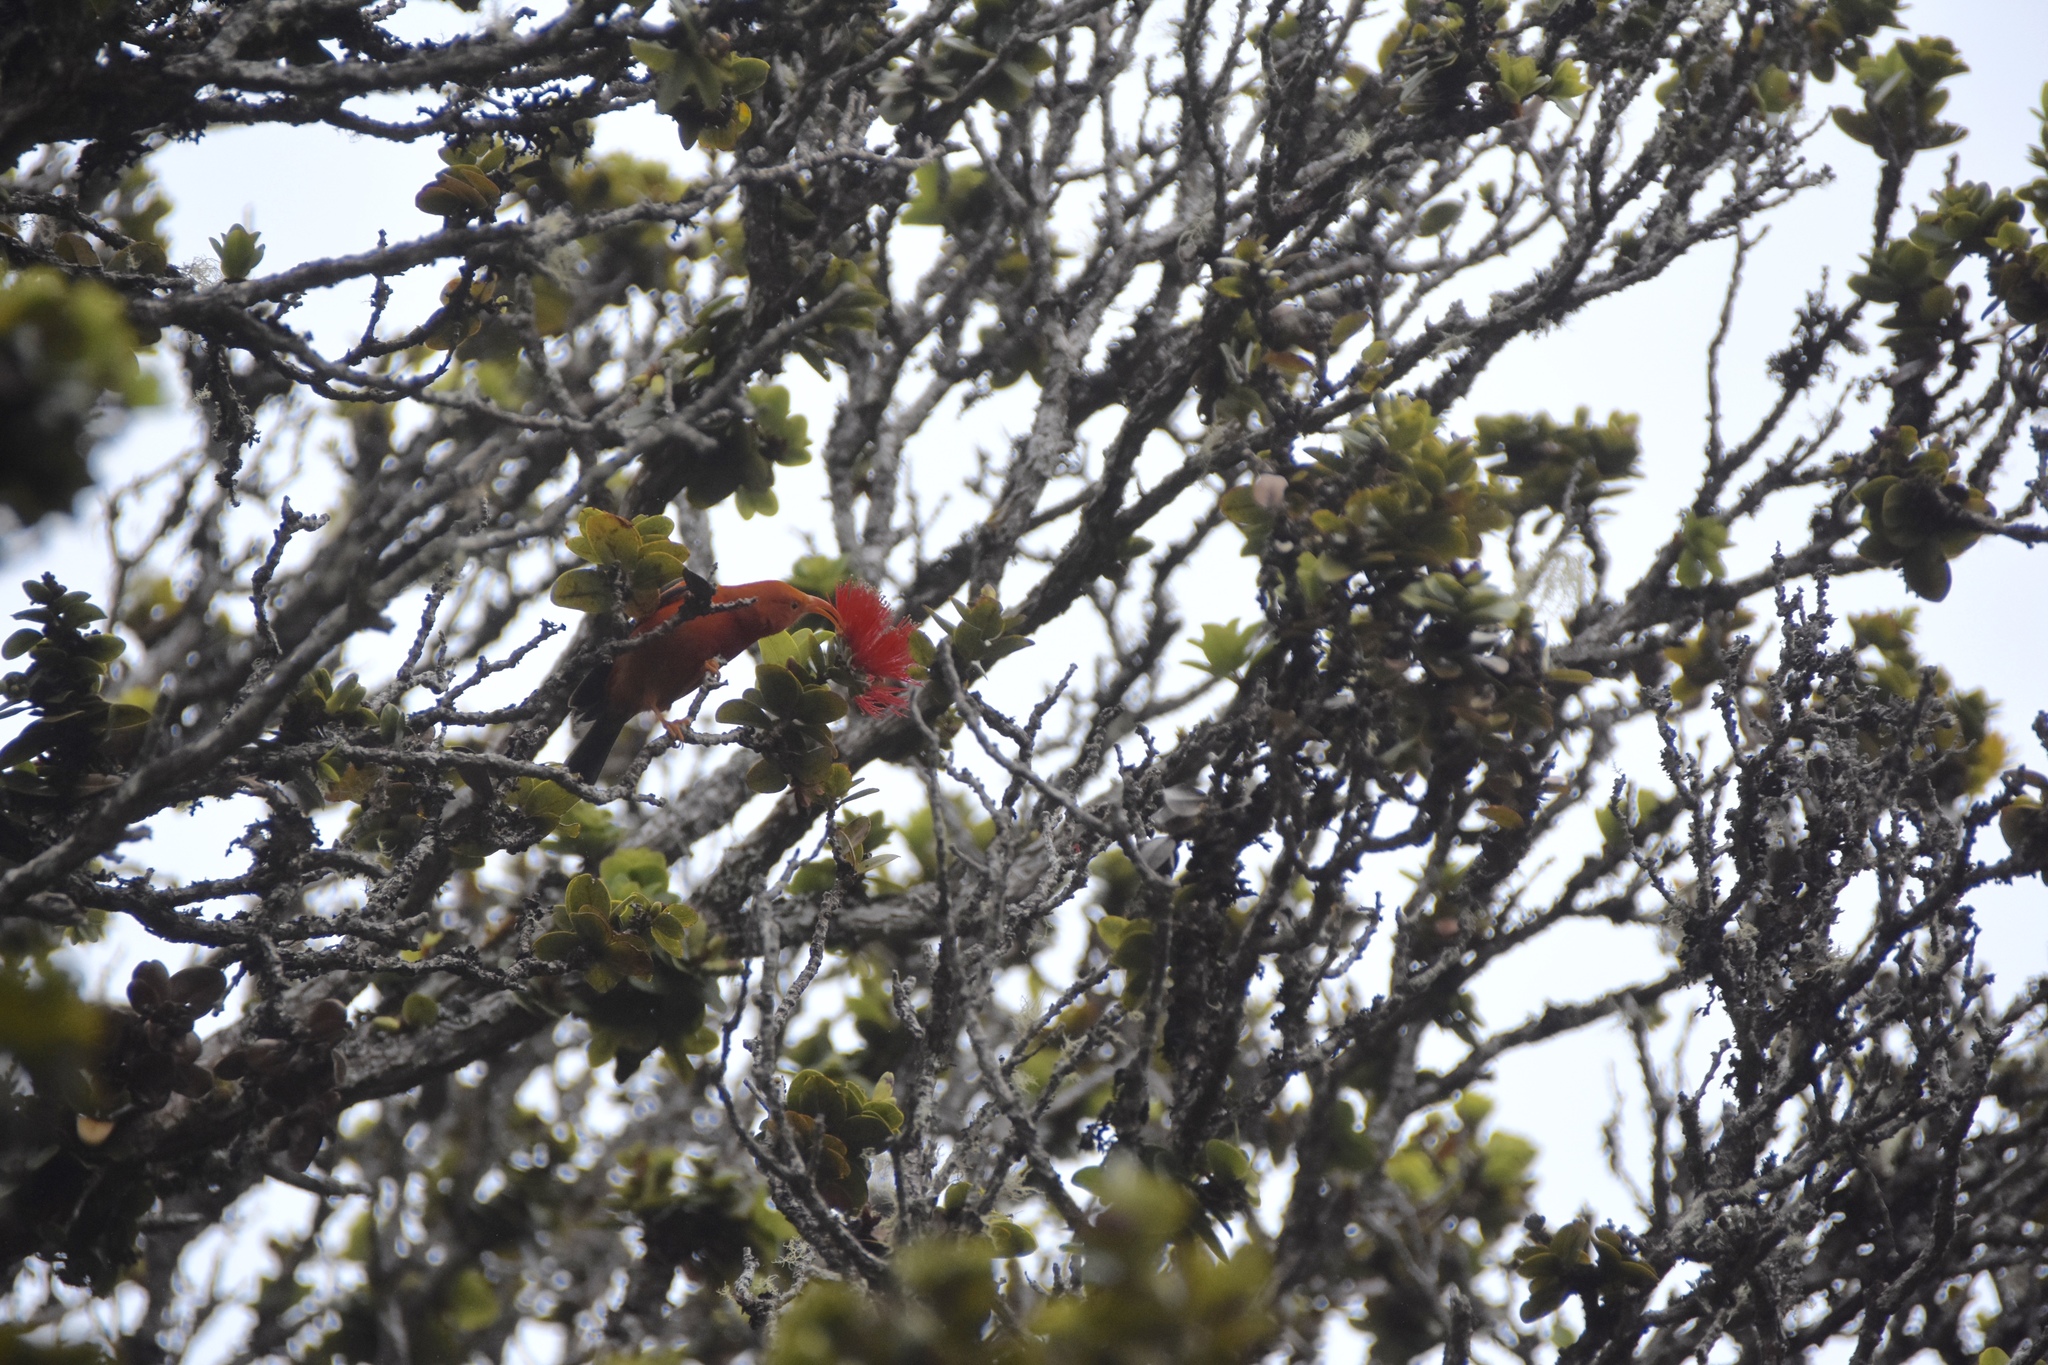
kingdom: Animalia
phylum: Chordata
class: Aves
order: Passeriformes
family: Fringillidae
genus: Vestiaria
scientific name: Vestiaria coccinea
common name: Iiwi
